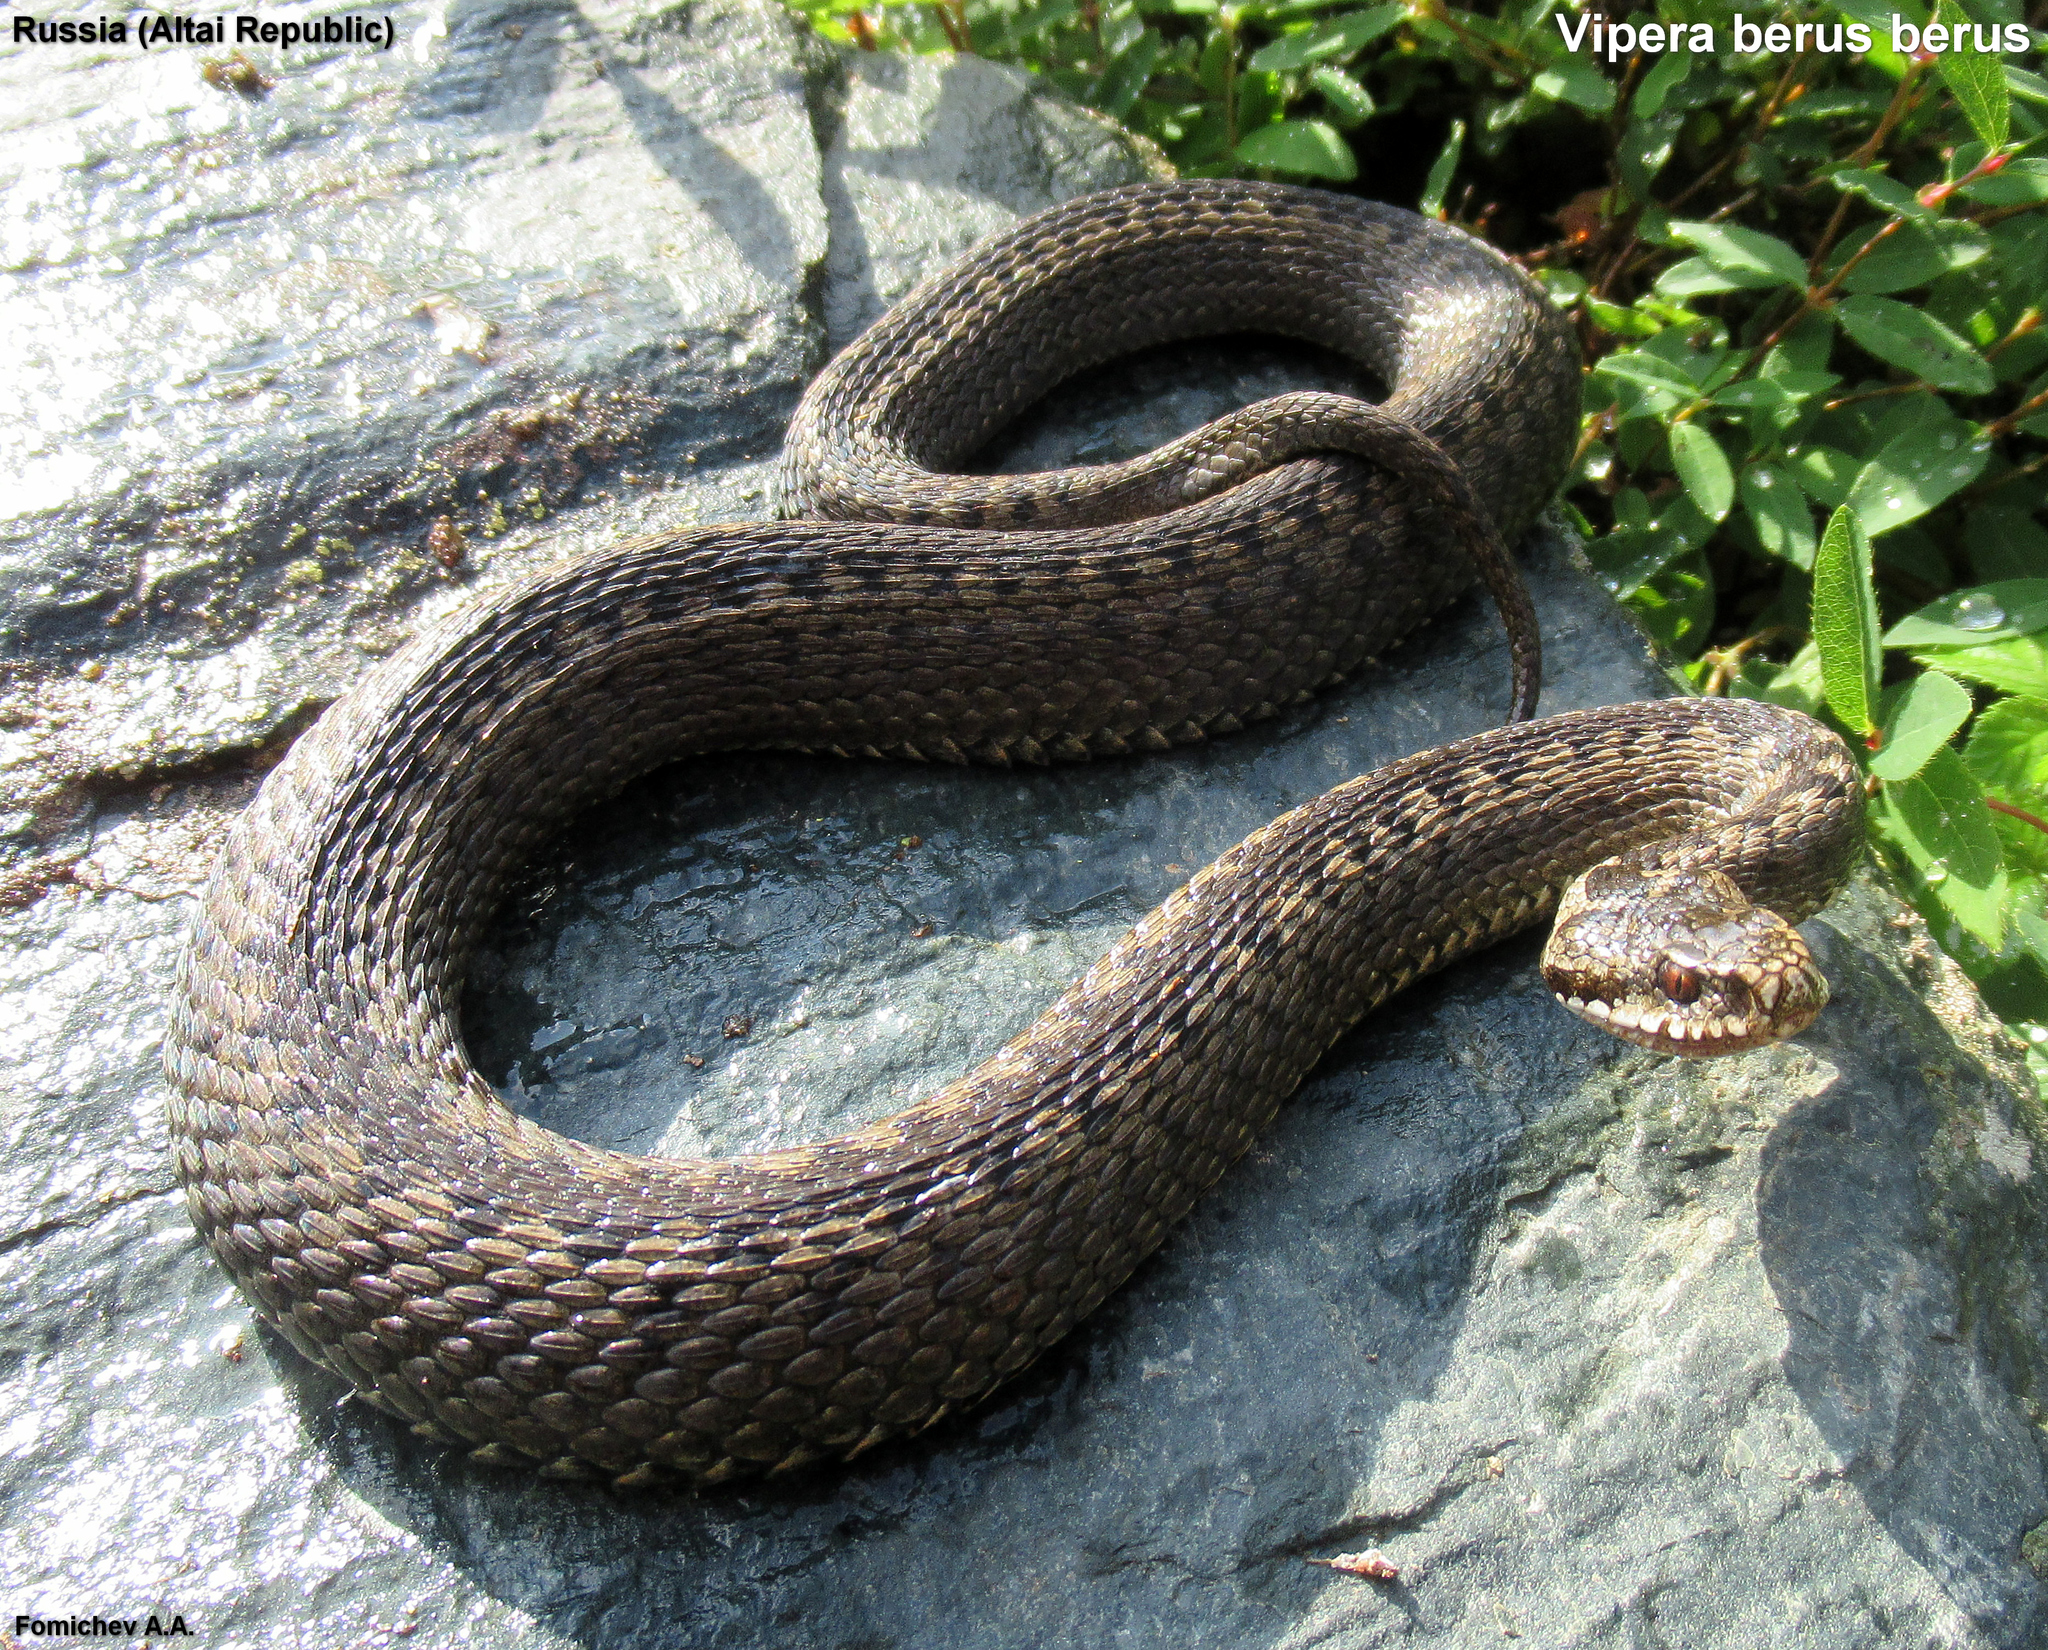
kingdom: Animalia
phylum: Chordata
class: Squamata
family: Viperidae
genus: Vipera
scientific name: Vipera berus
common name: Adder
